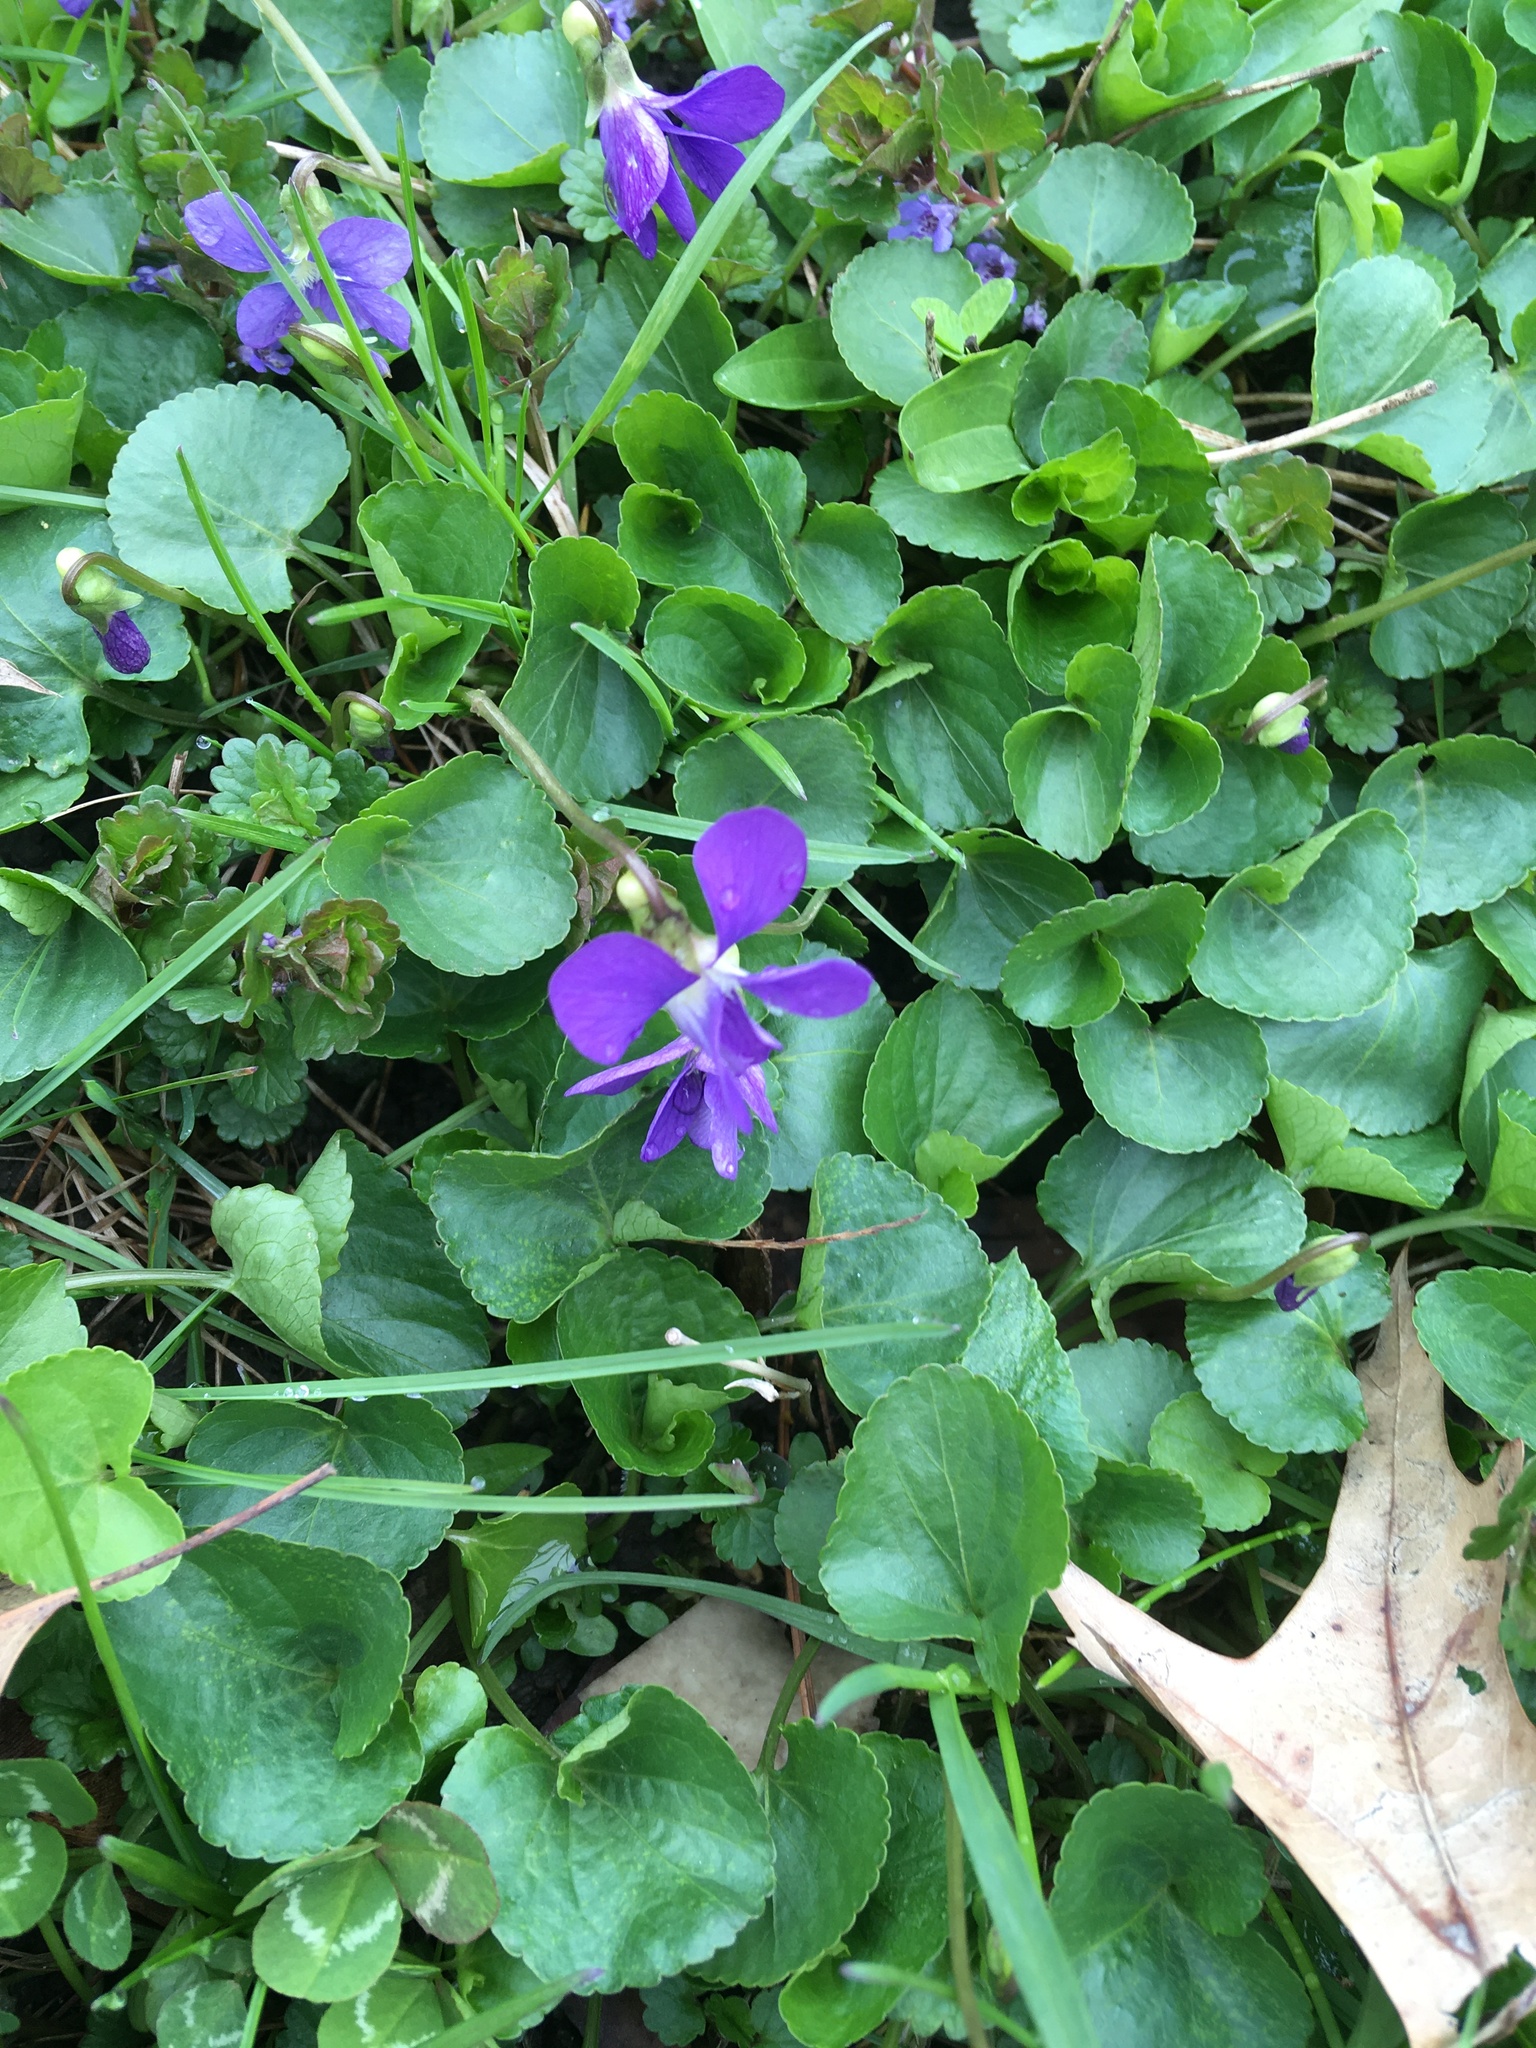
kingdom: Plantae
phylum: Tracheophyta
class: Magnoliopsida
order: Malpighiales
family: Violaceae
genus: Viola
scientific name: Viola sororia
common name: Dooryard violet
